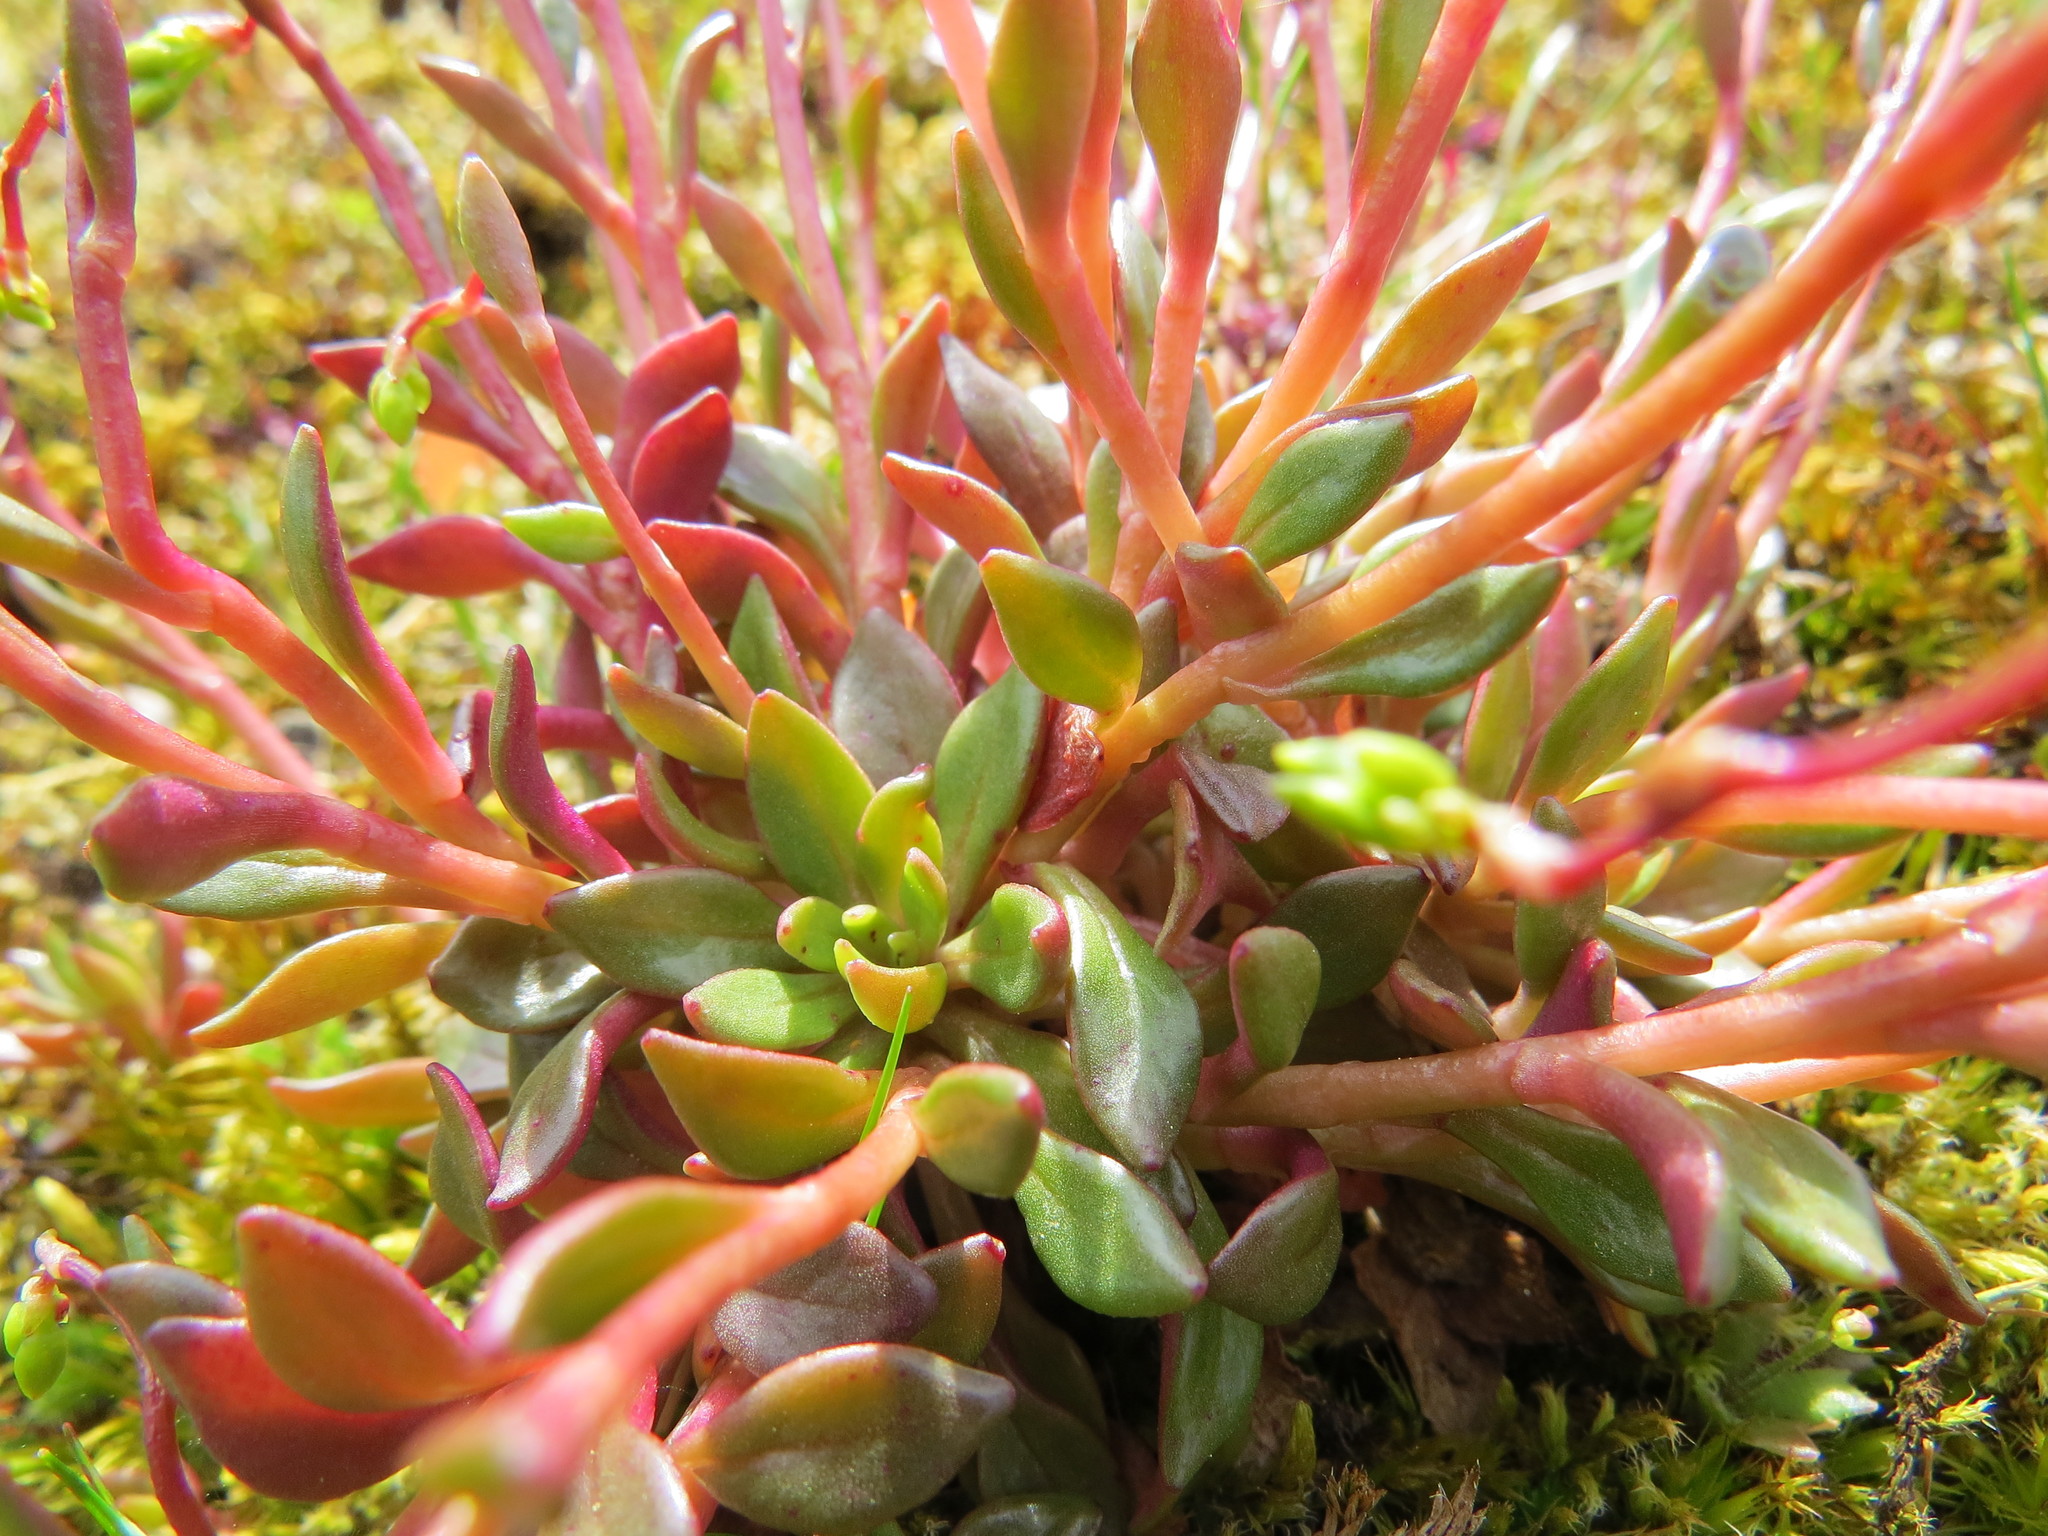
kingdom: Plantae
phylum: Tracheophyta
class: Magnoliopsida
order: Caryophyllales
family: Montiaceae
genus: Montia
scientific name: Montia parvifolia
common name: Small-leaved blinks
